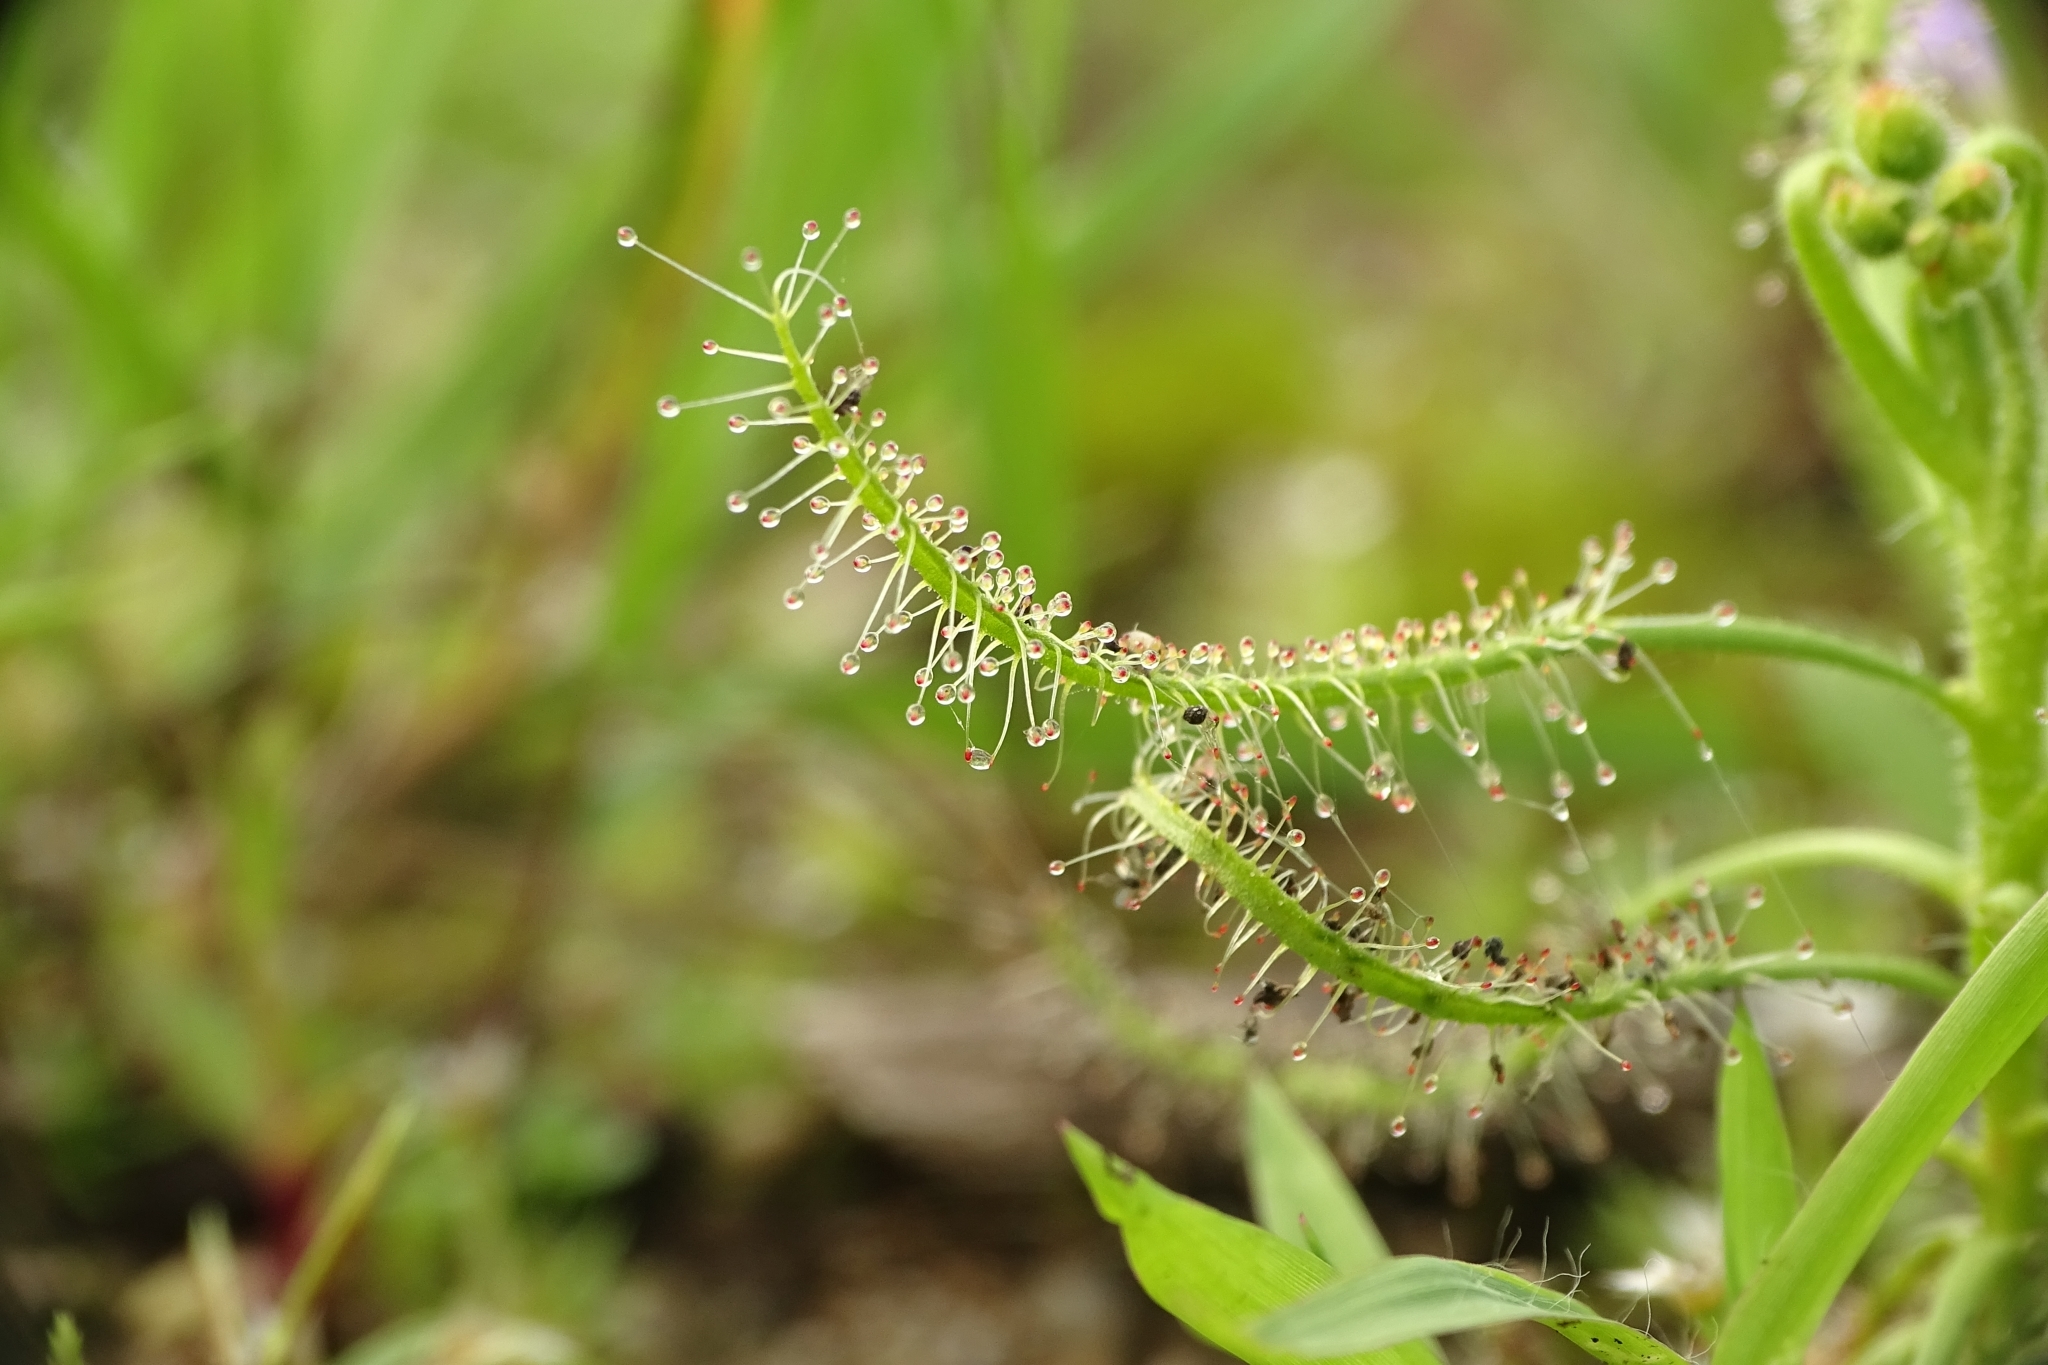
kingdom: Plantae
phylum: Tracheophyta
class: Magnoliopsida
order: Caryophyllales
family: Droseraceae
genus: Drosera
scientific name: Drosera indica
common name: Indian sundew
